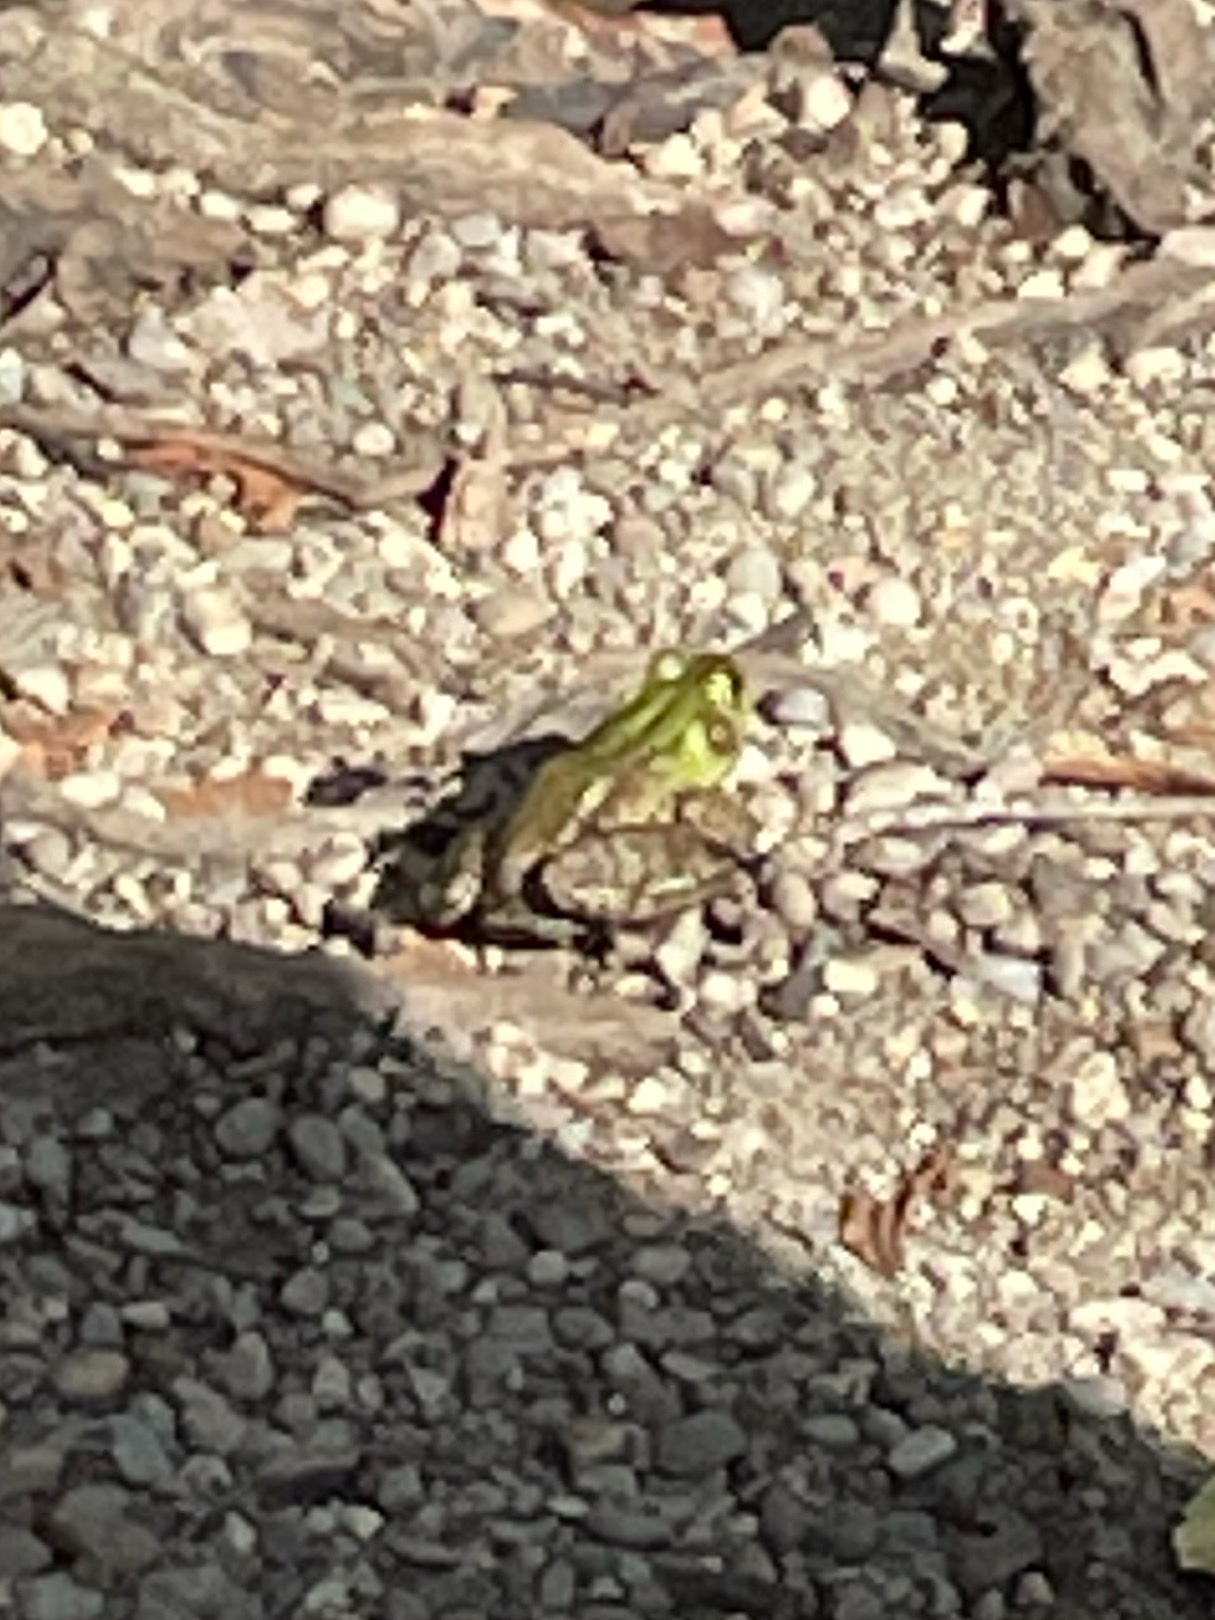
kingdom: Animalia
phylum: Chordata
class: Amphibia
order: Anura
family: Ranidae
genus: Lithobates
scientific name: Lithobates clamitans
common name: Green frog
